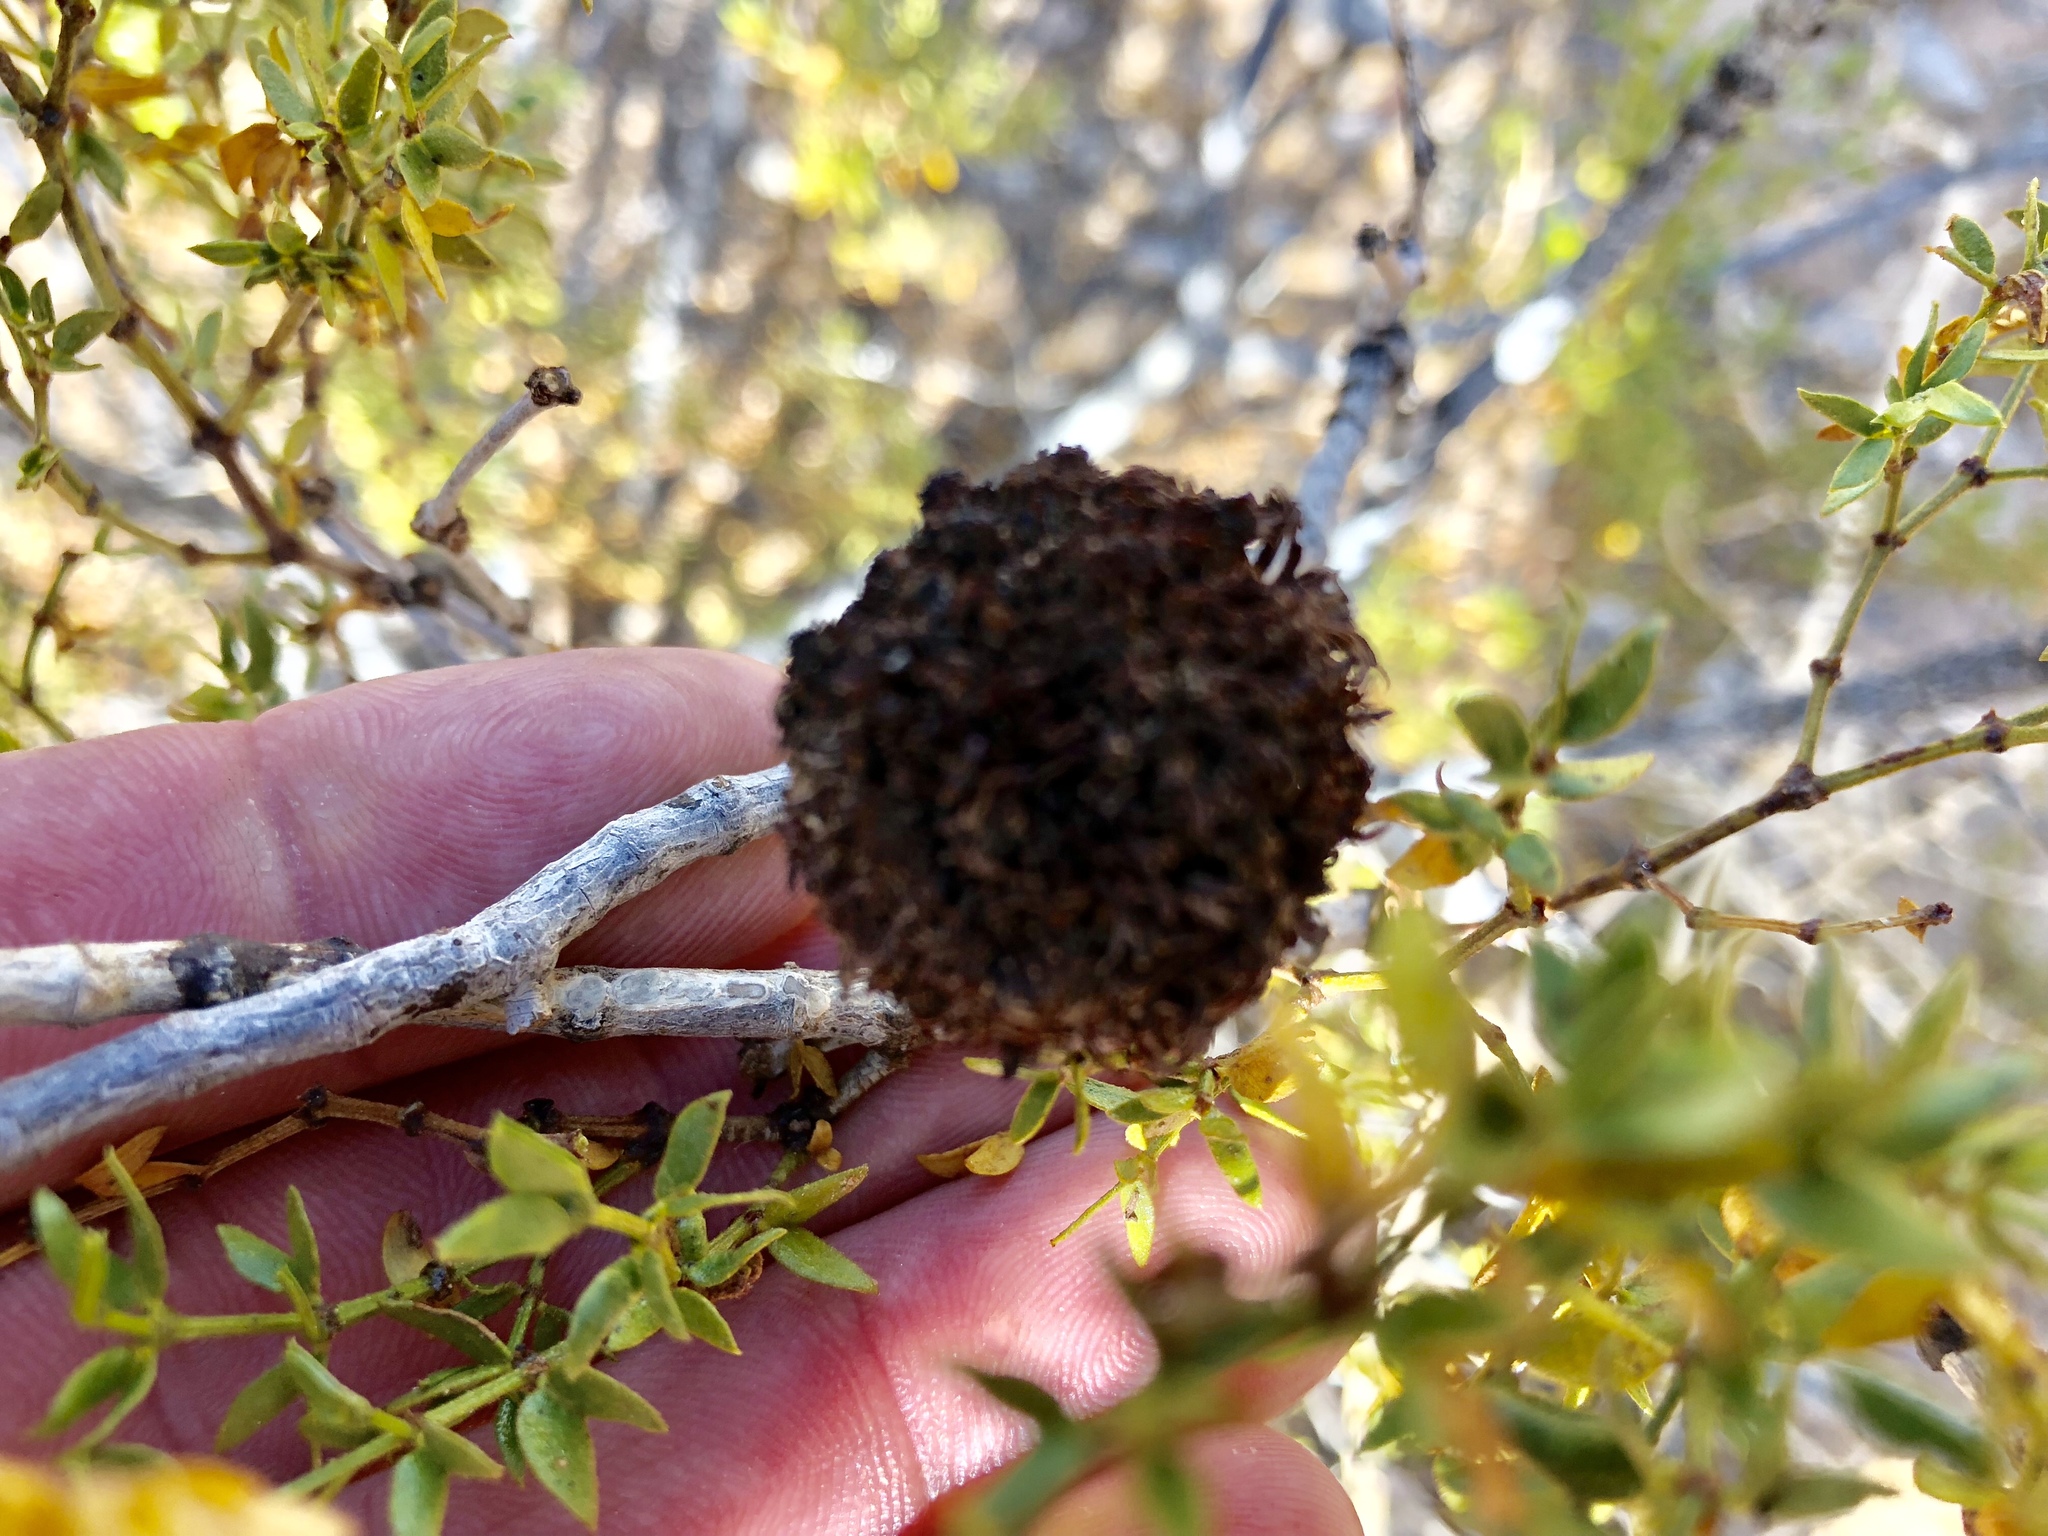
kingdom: Animalia
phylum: Arthropoda
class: Insecta
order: Diptera
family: Cecidomyiidae
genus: Asphondylia
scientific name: Asphondylia auripila
